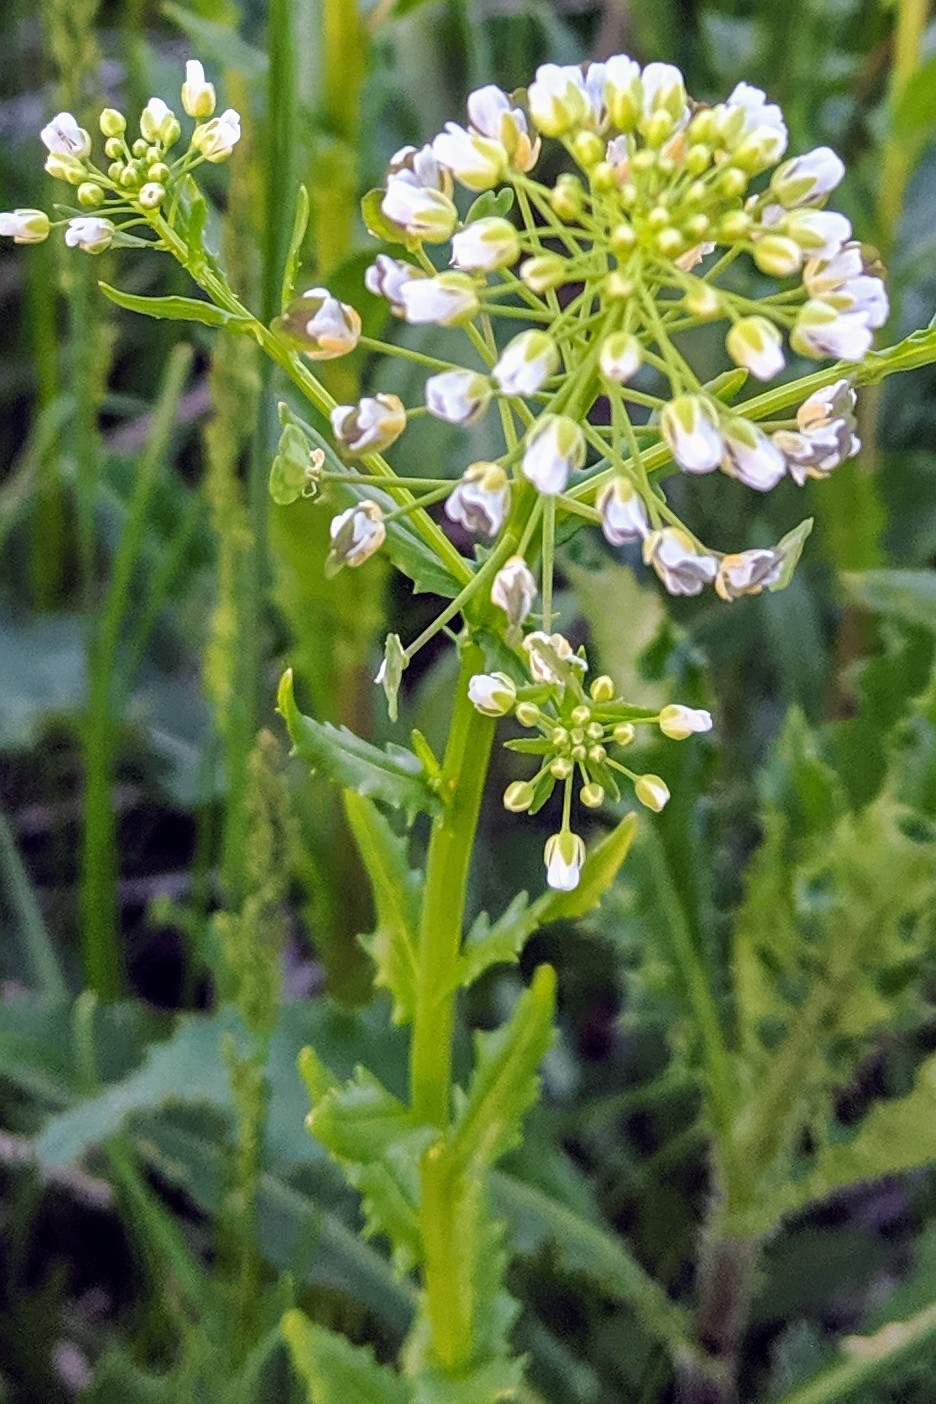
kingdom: Plantae
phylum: Tracheophyta
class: Magnoliopsida
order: Brassicales
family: Brassicaceae
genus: Thlaspi
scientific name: Thlaspi arvense
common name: Field pennycress
